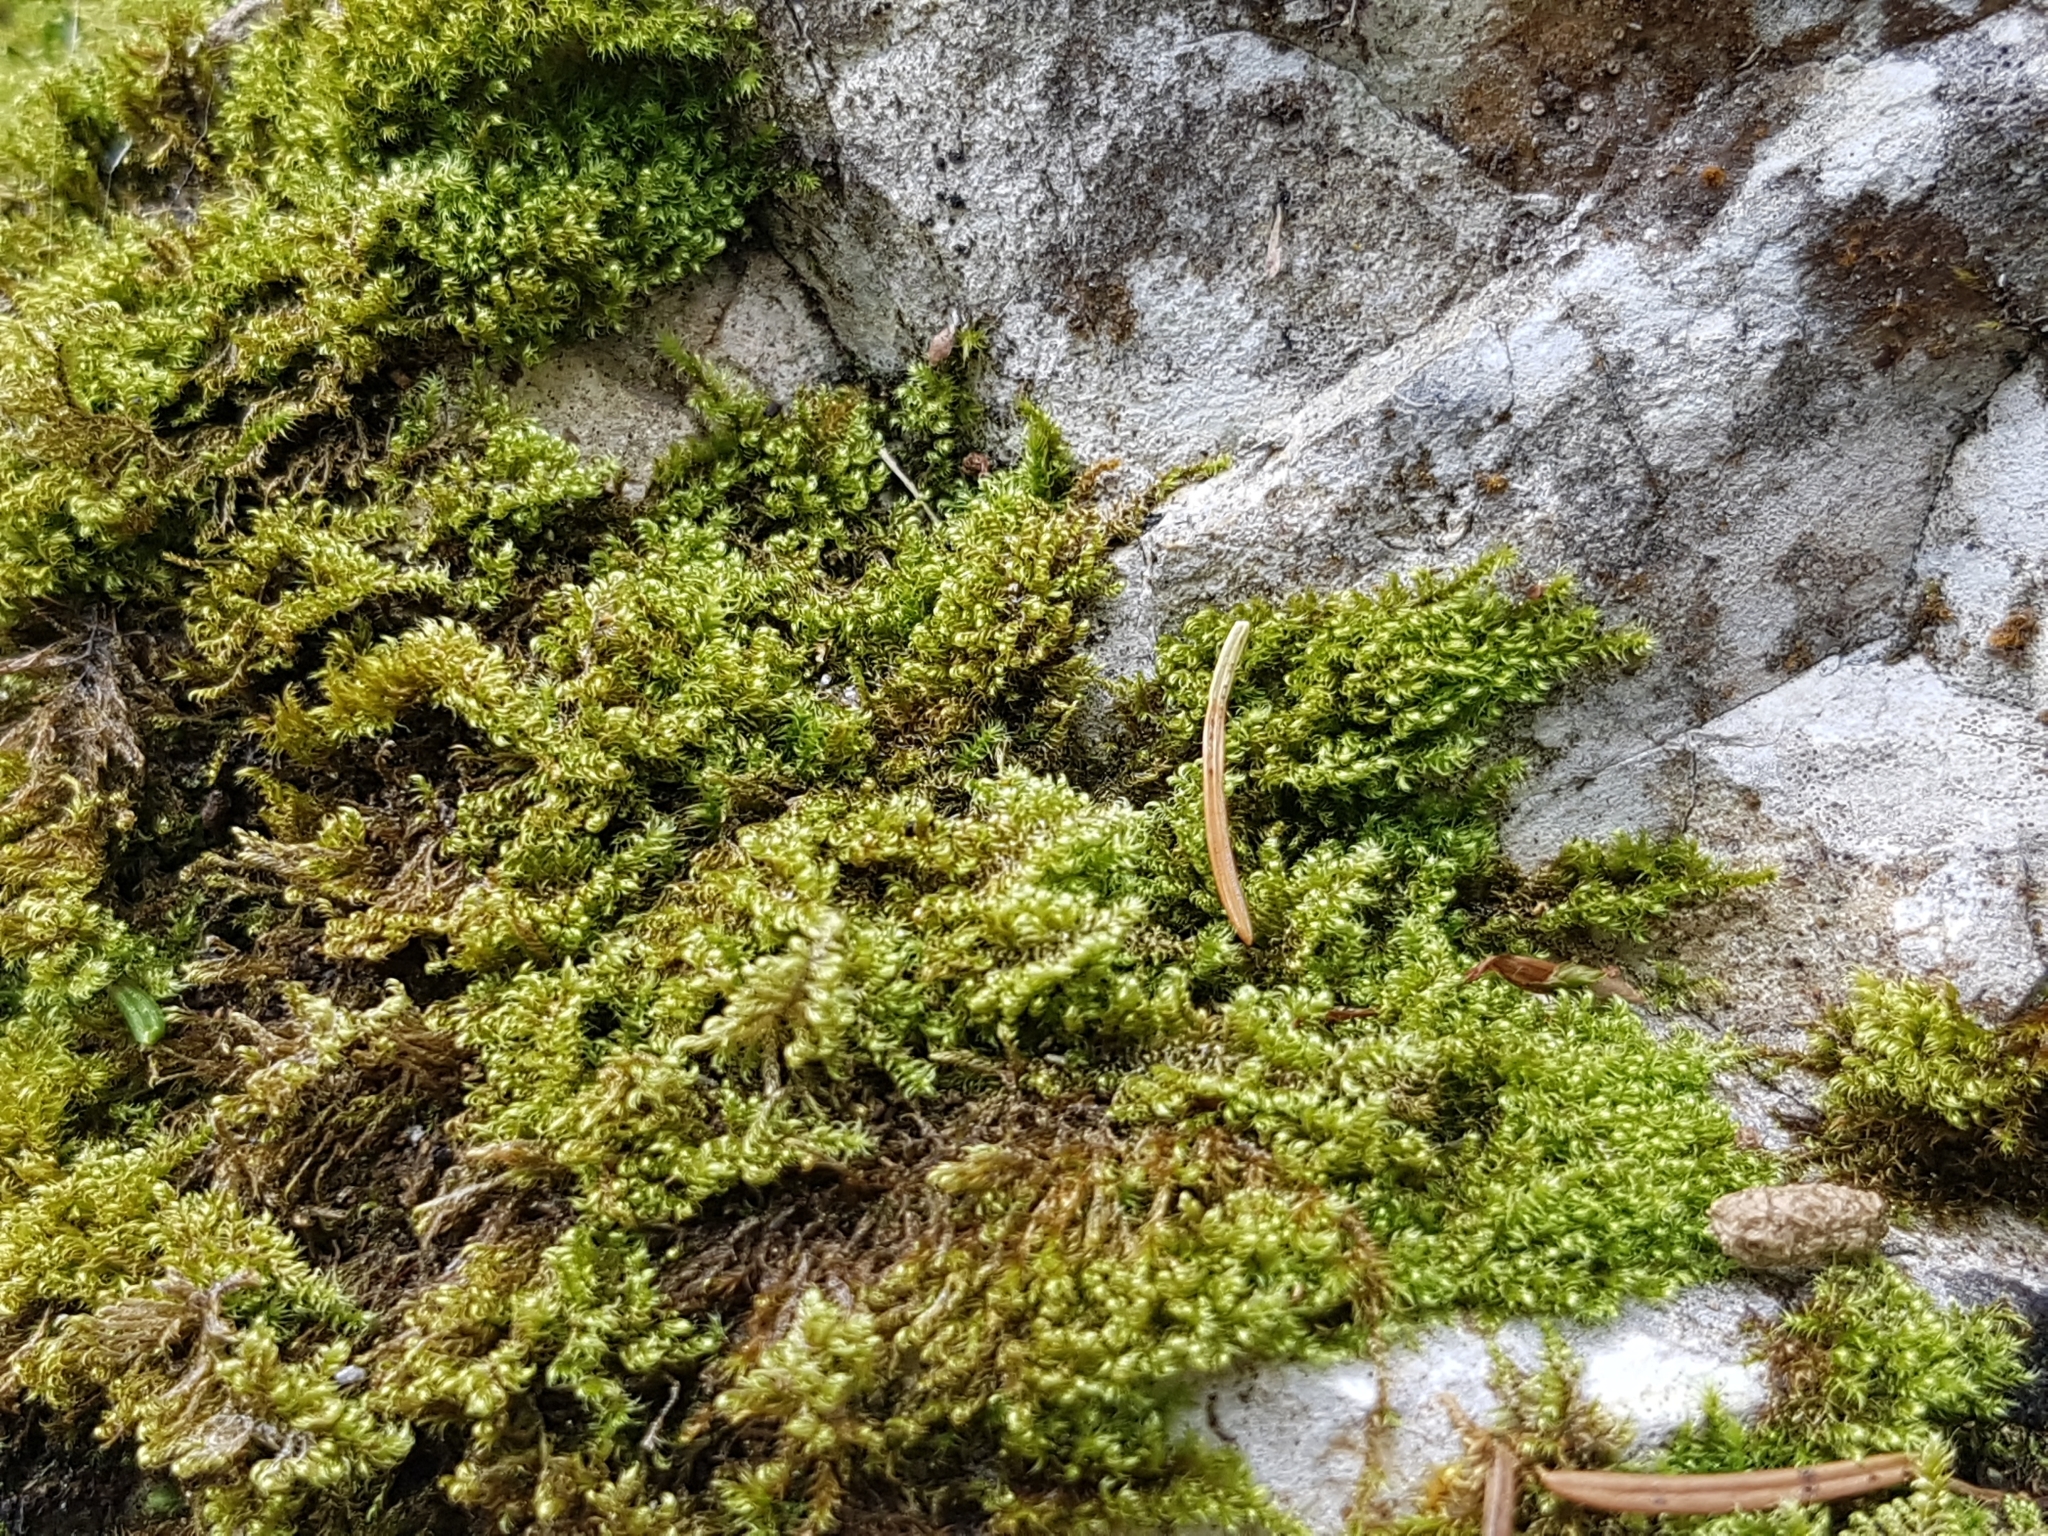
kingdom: Plantae
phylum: Bryophyta
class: Bryopsida
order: Hypnales
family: Myuriaceae
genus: Ctenidium
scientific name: Ctenidium molluscum
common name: Chalk comb-moss
